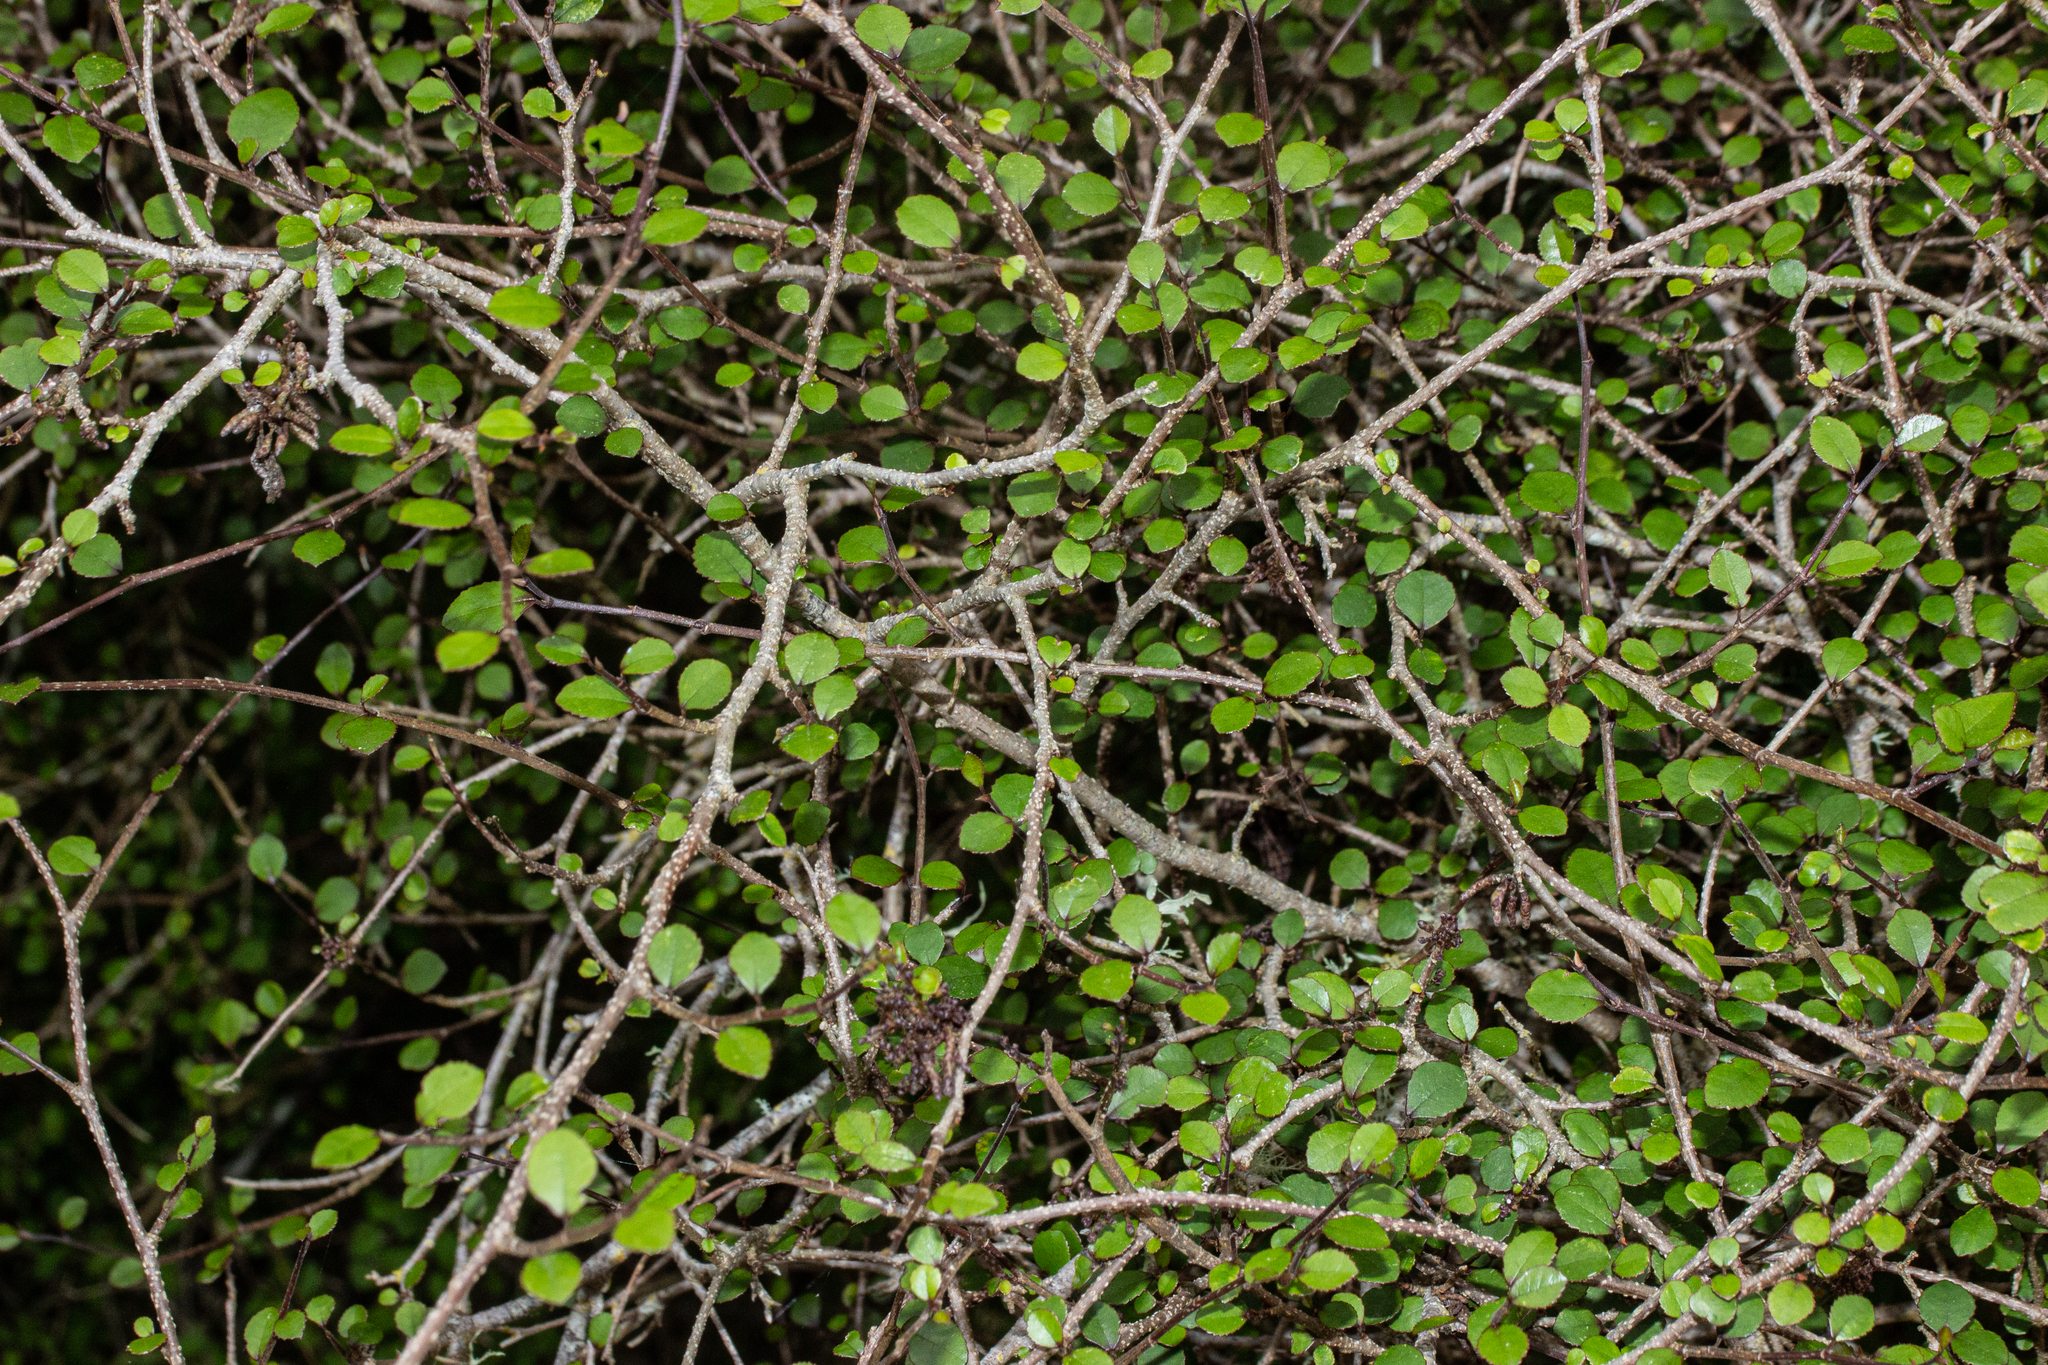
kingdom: Plantae
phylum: Tracheophyta
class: Magnoliopsida
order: Rosales
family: Moraceae
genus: Paratrophis
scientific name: Paratrophis microphylla
